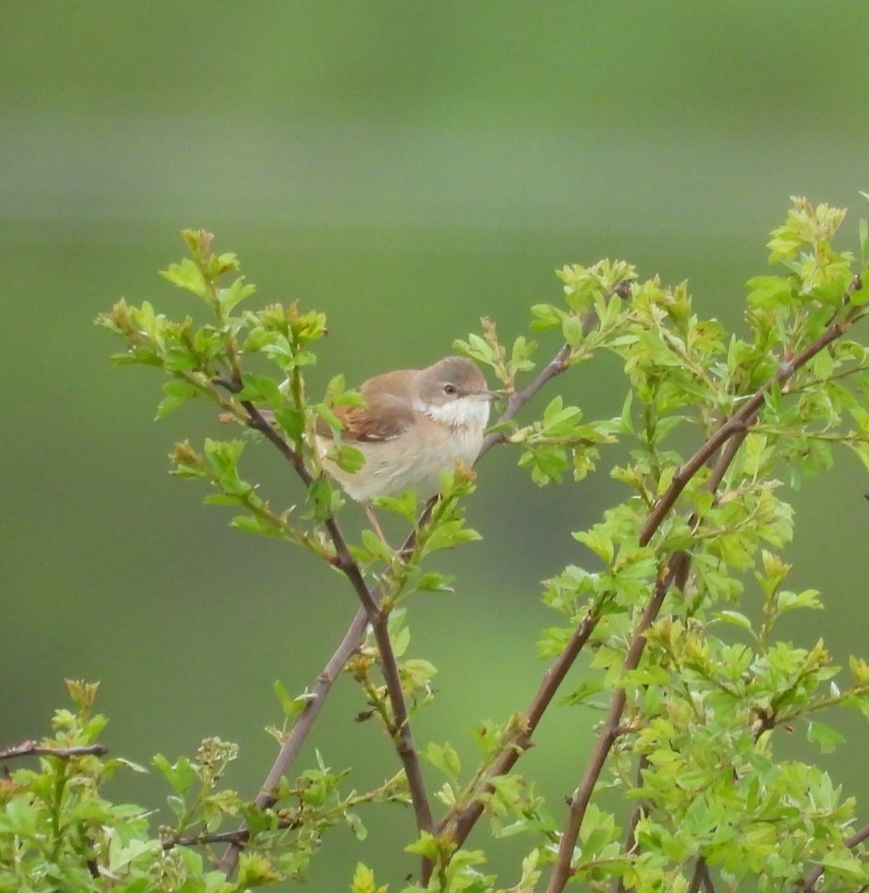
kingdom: Animalia
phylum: Chordata
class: Aves
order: Passeriformes
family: Sylviidae
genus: Sylvia
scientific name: Sylvia communis
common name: Common whitethroat
